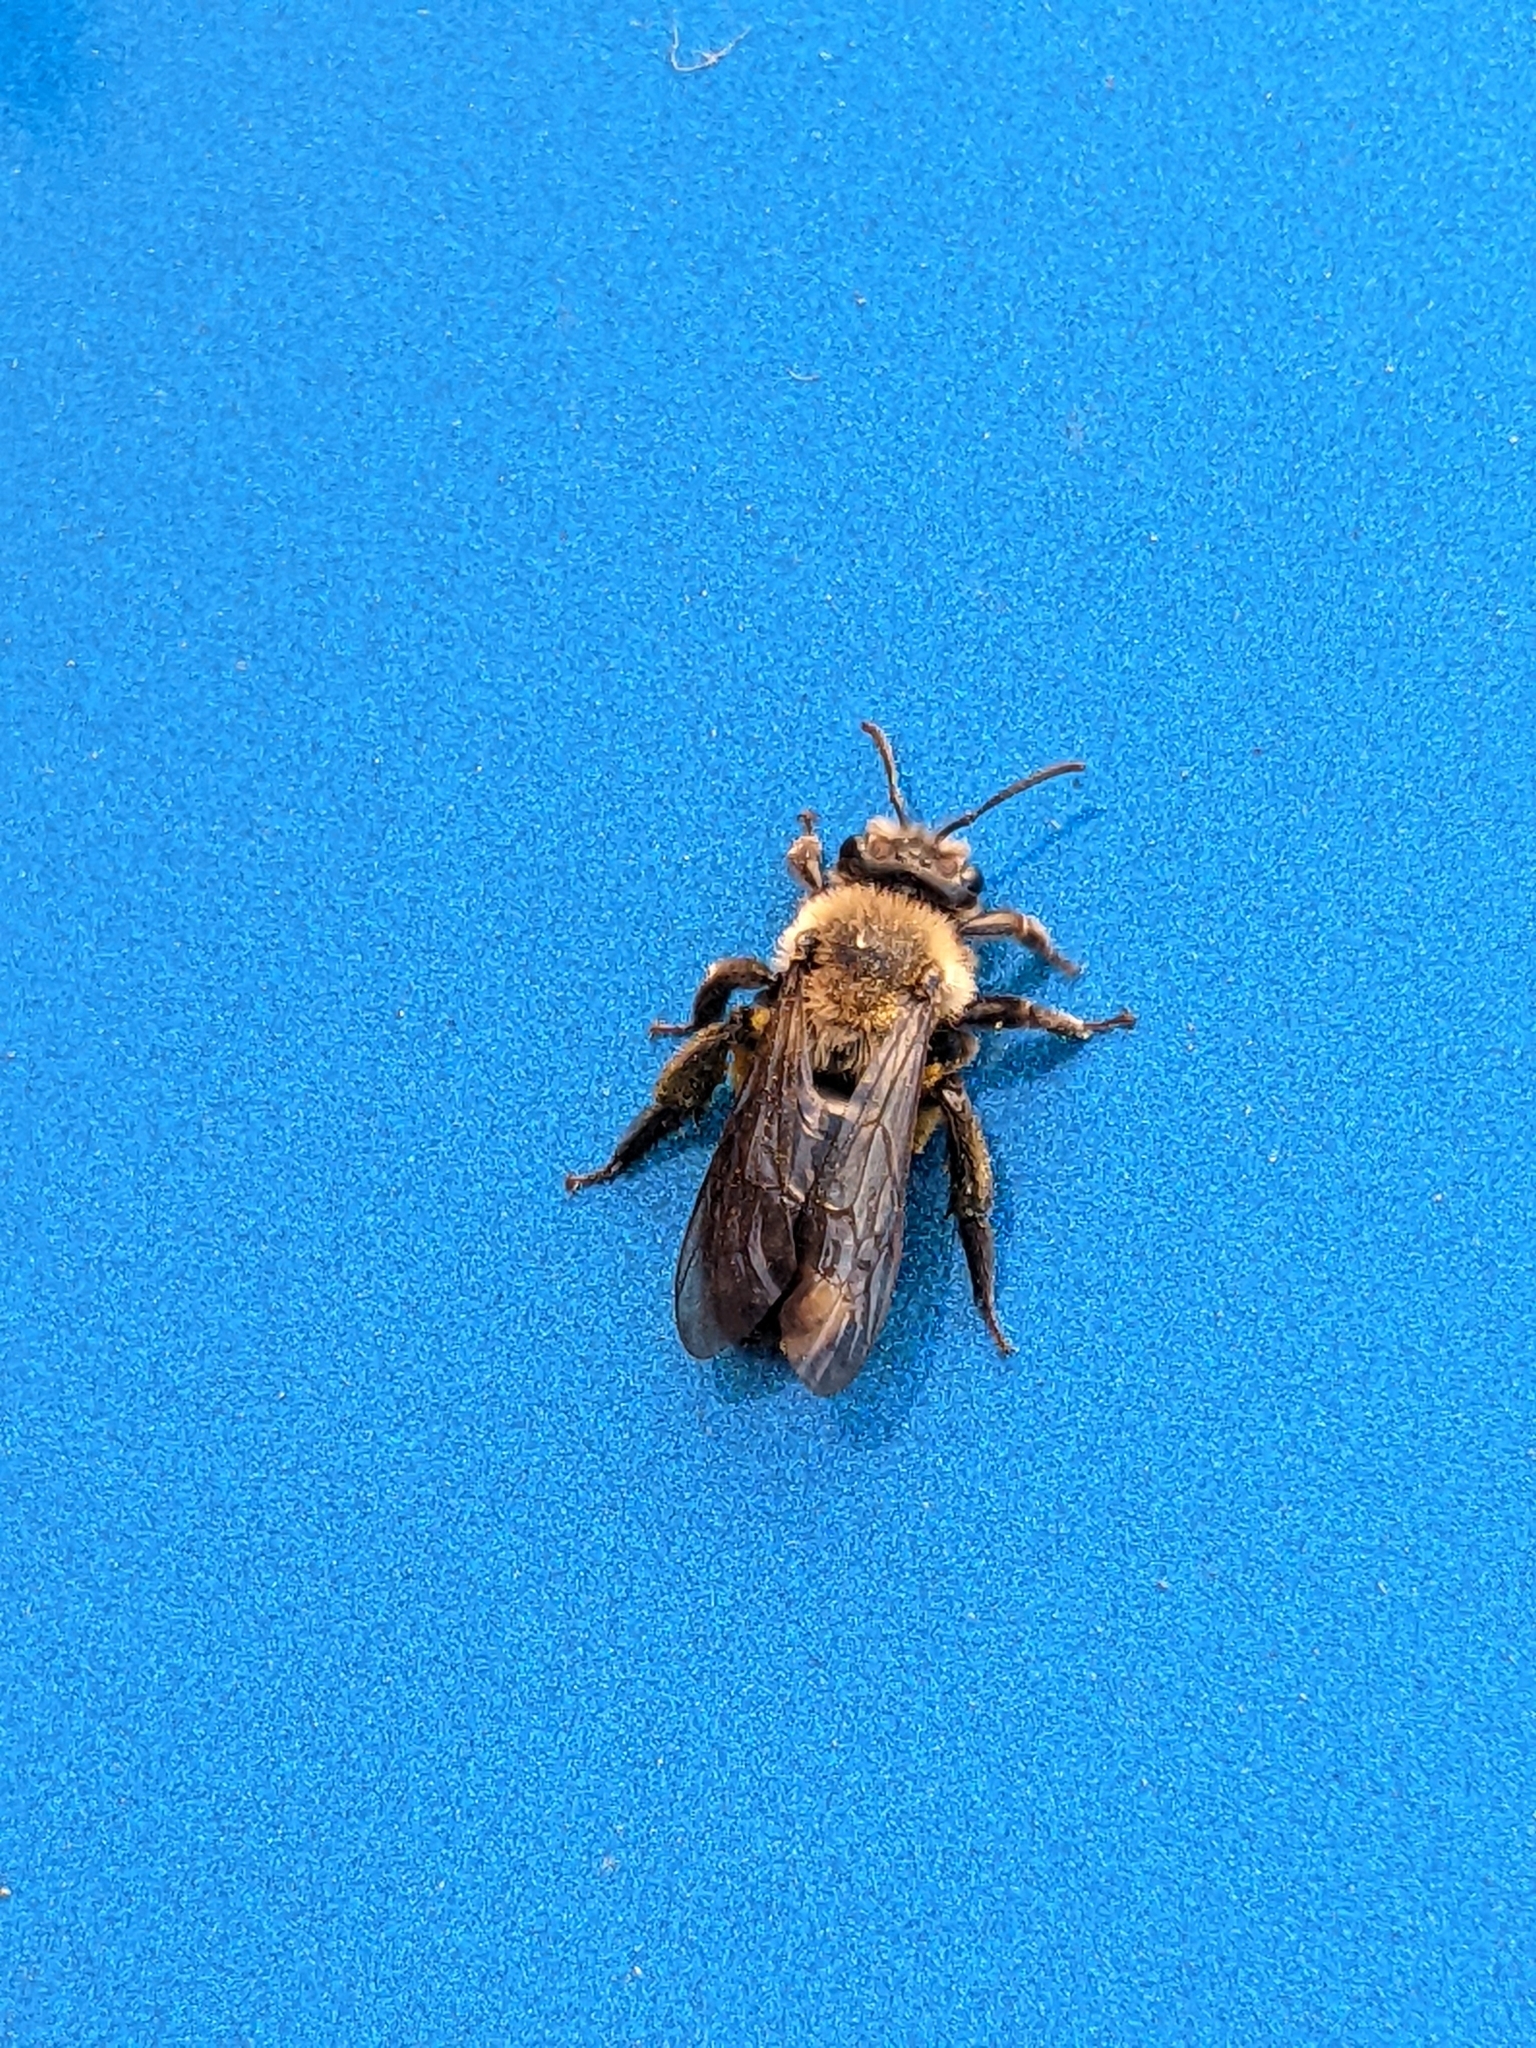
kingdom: Animalia
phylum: Arthropoda
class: Insecta
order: Hymenoptera
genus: Melandrena
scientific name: Melandrena
